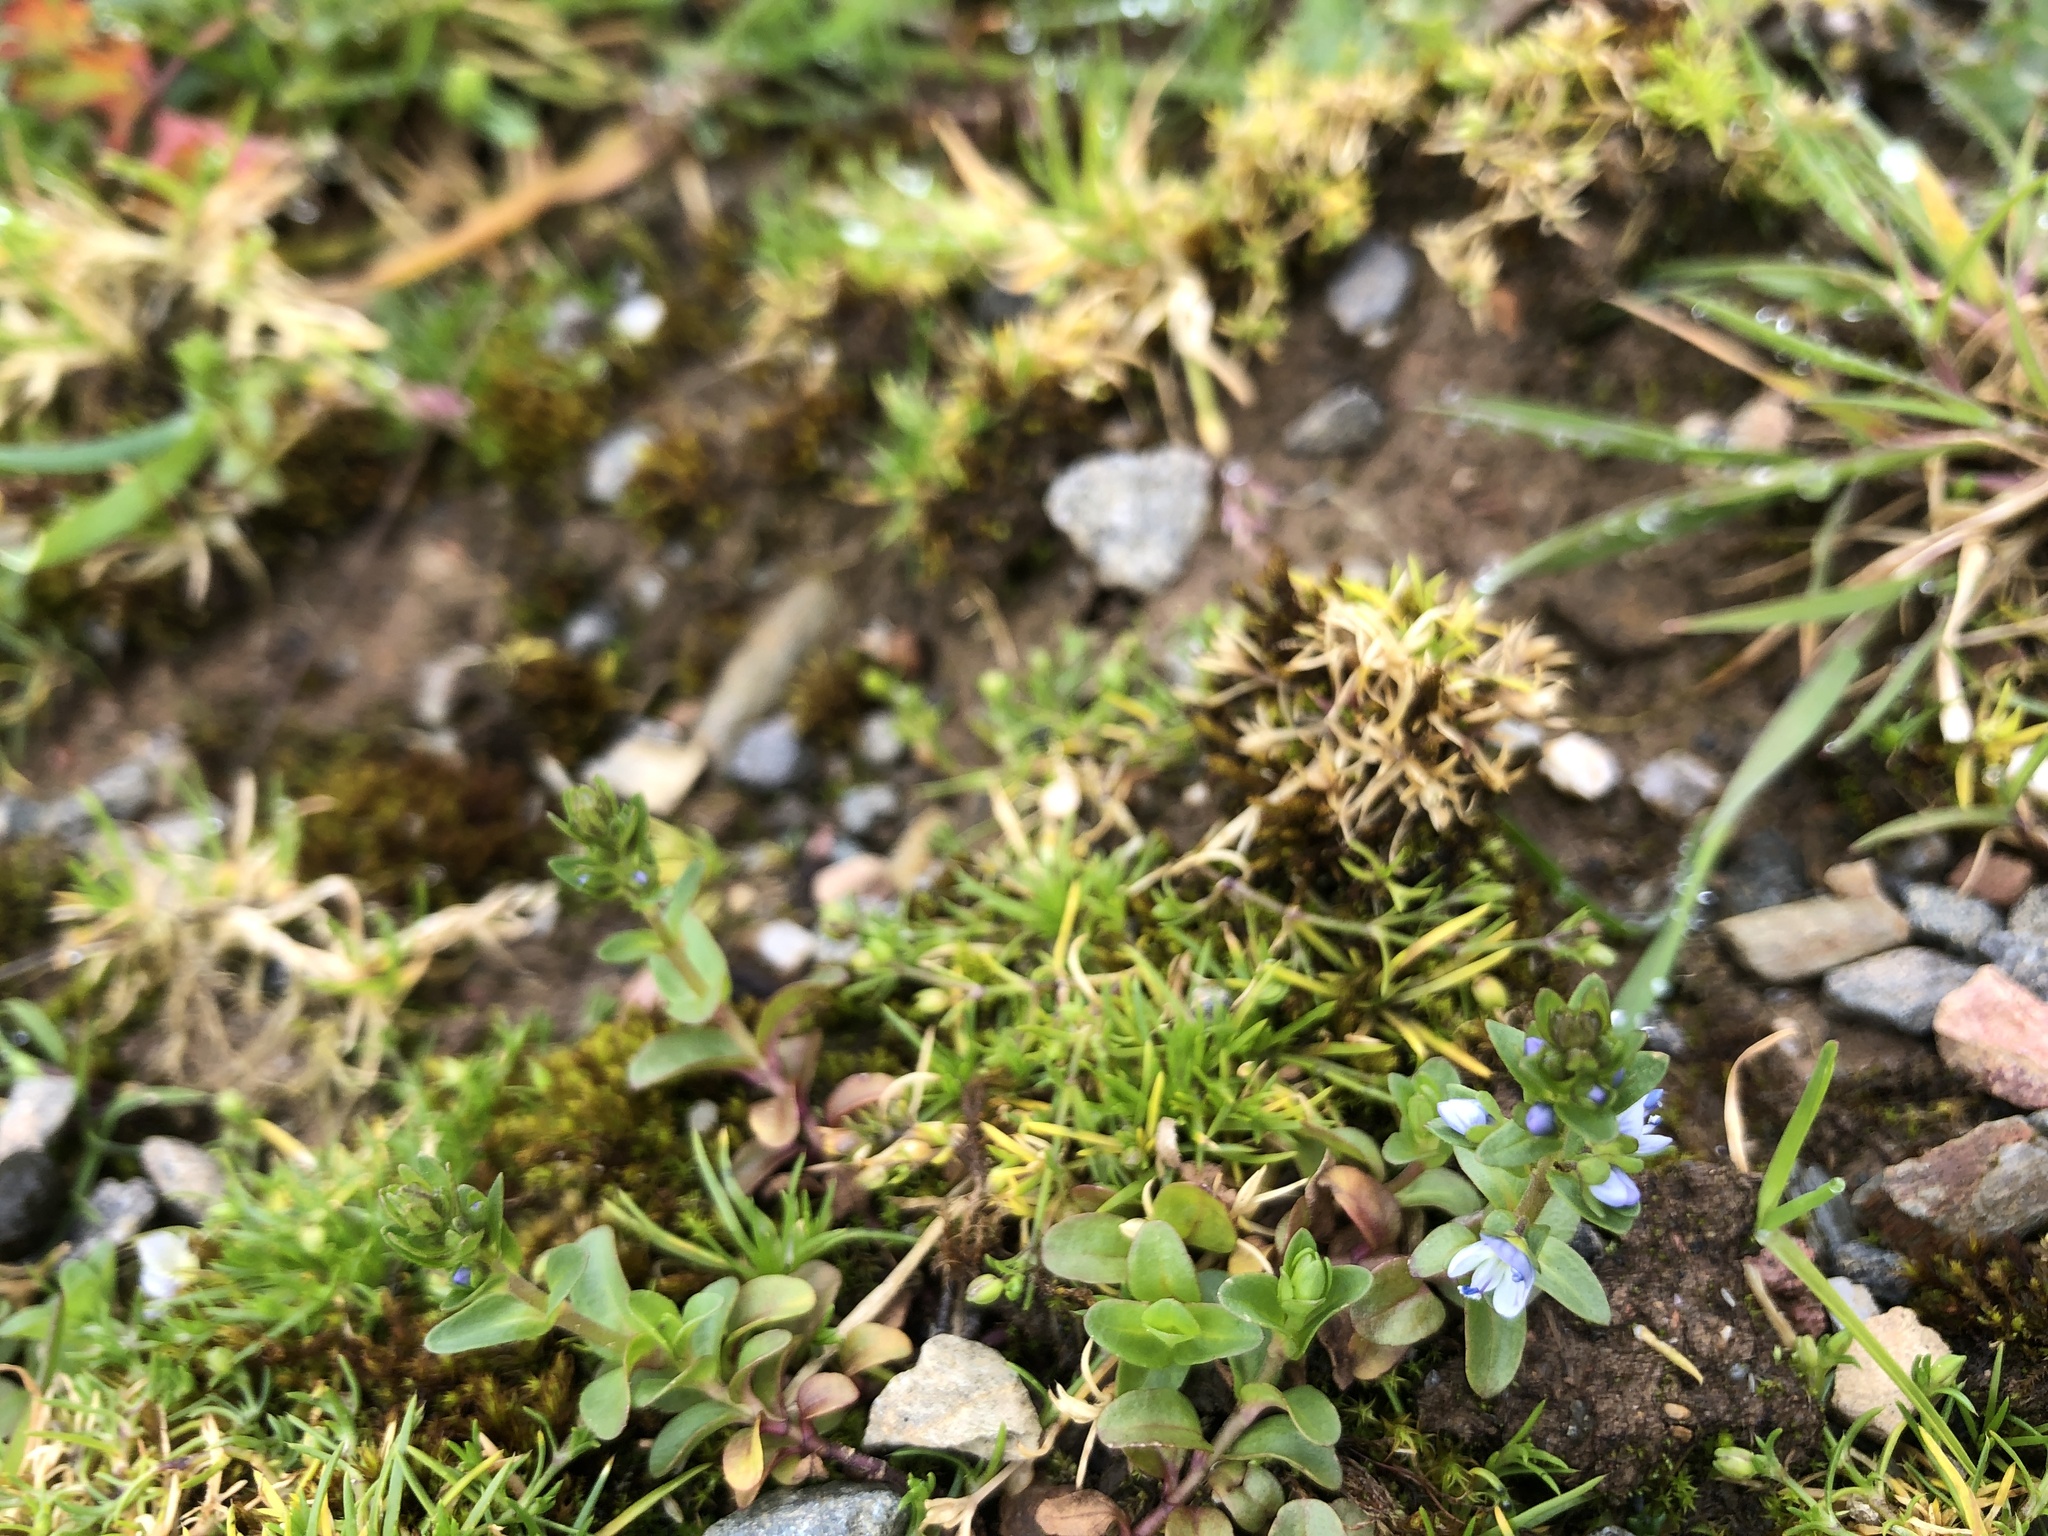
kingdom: Plantae
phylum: Tracheophyta
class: Magnoliopsida
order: Lamiales
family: Plantaginaceae
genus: Veronica
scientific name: Veronica serpyllifolia
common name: Thyme-leaved speedwell
